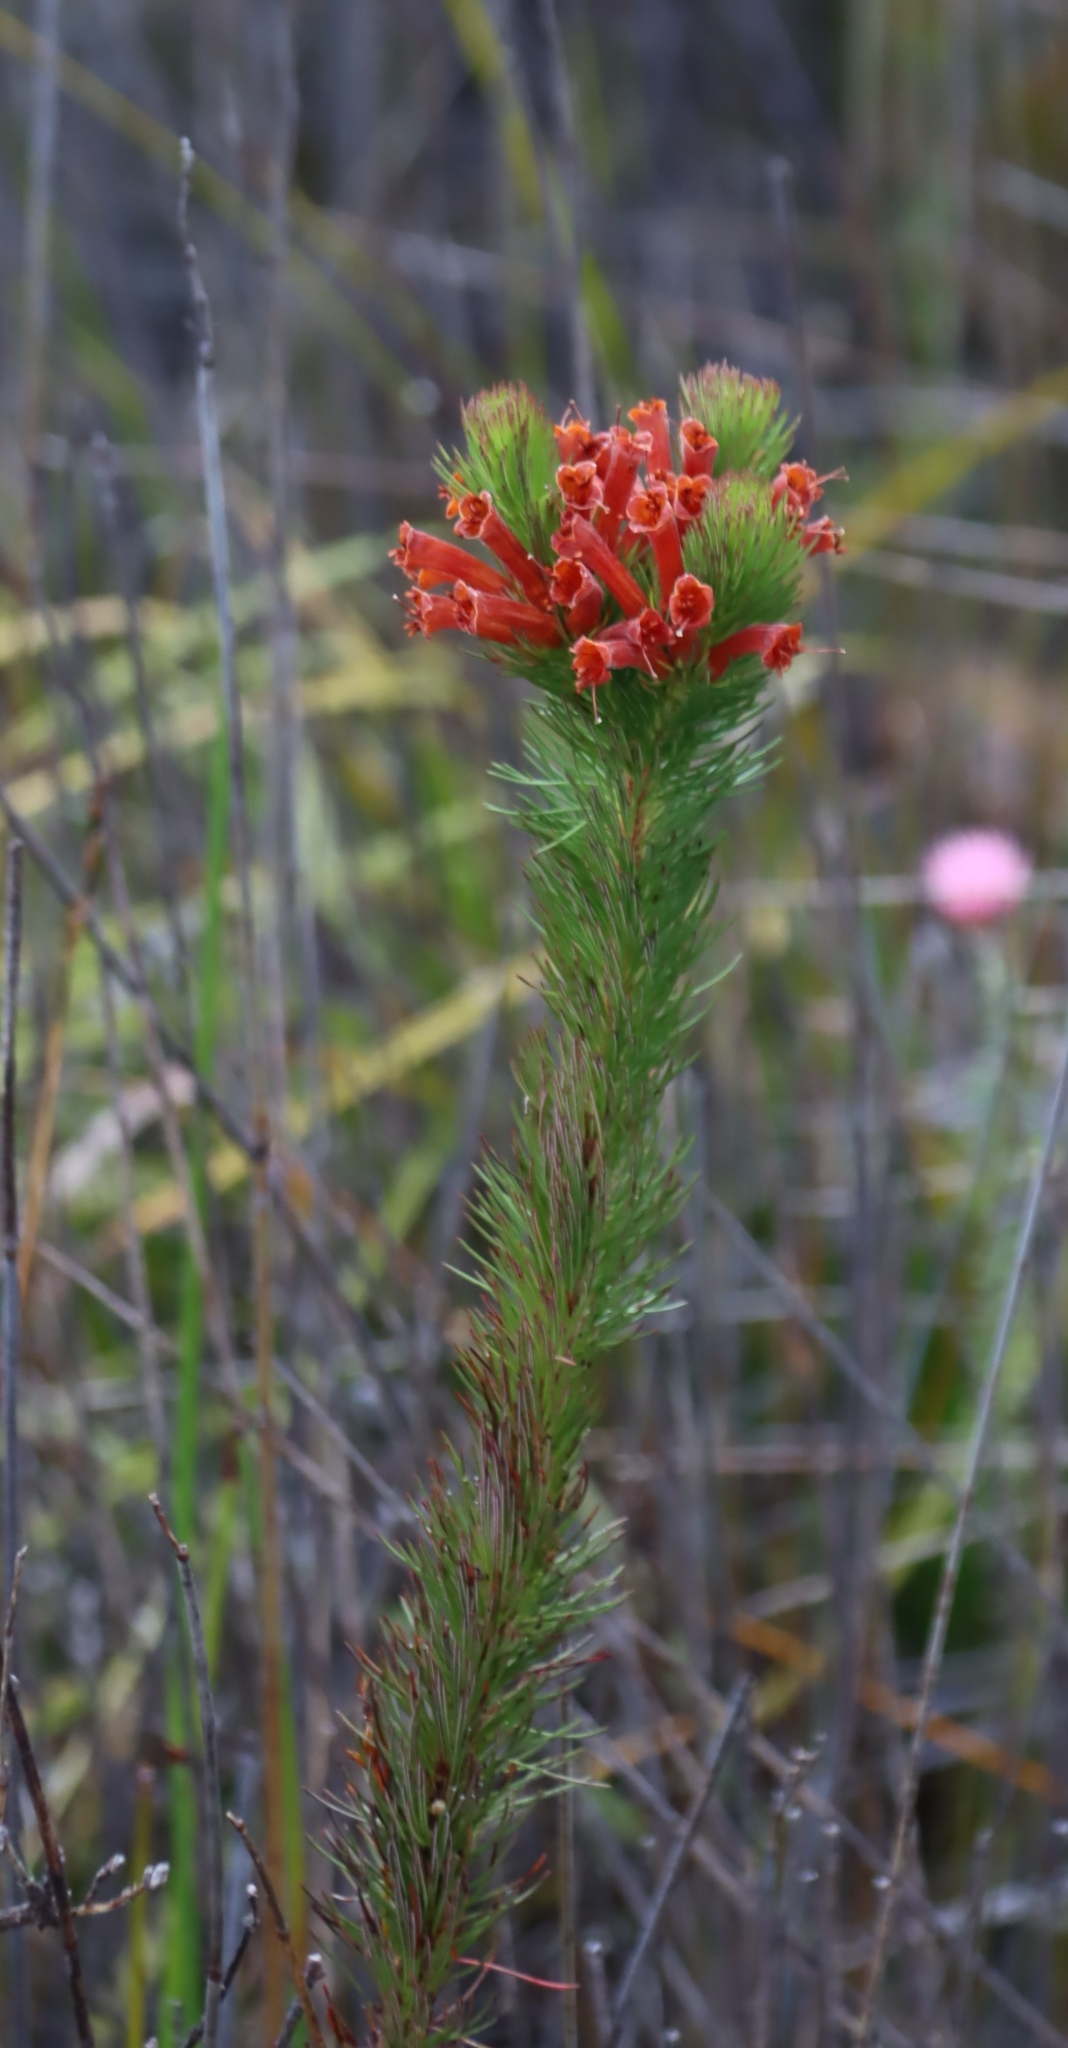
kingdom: Plantae
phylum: Tracheophyta
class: Magnoliopsida
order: Ericales
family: Ericaceae
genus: Erica
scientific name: Erica vestita
